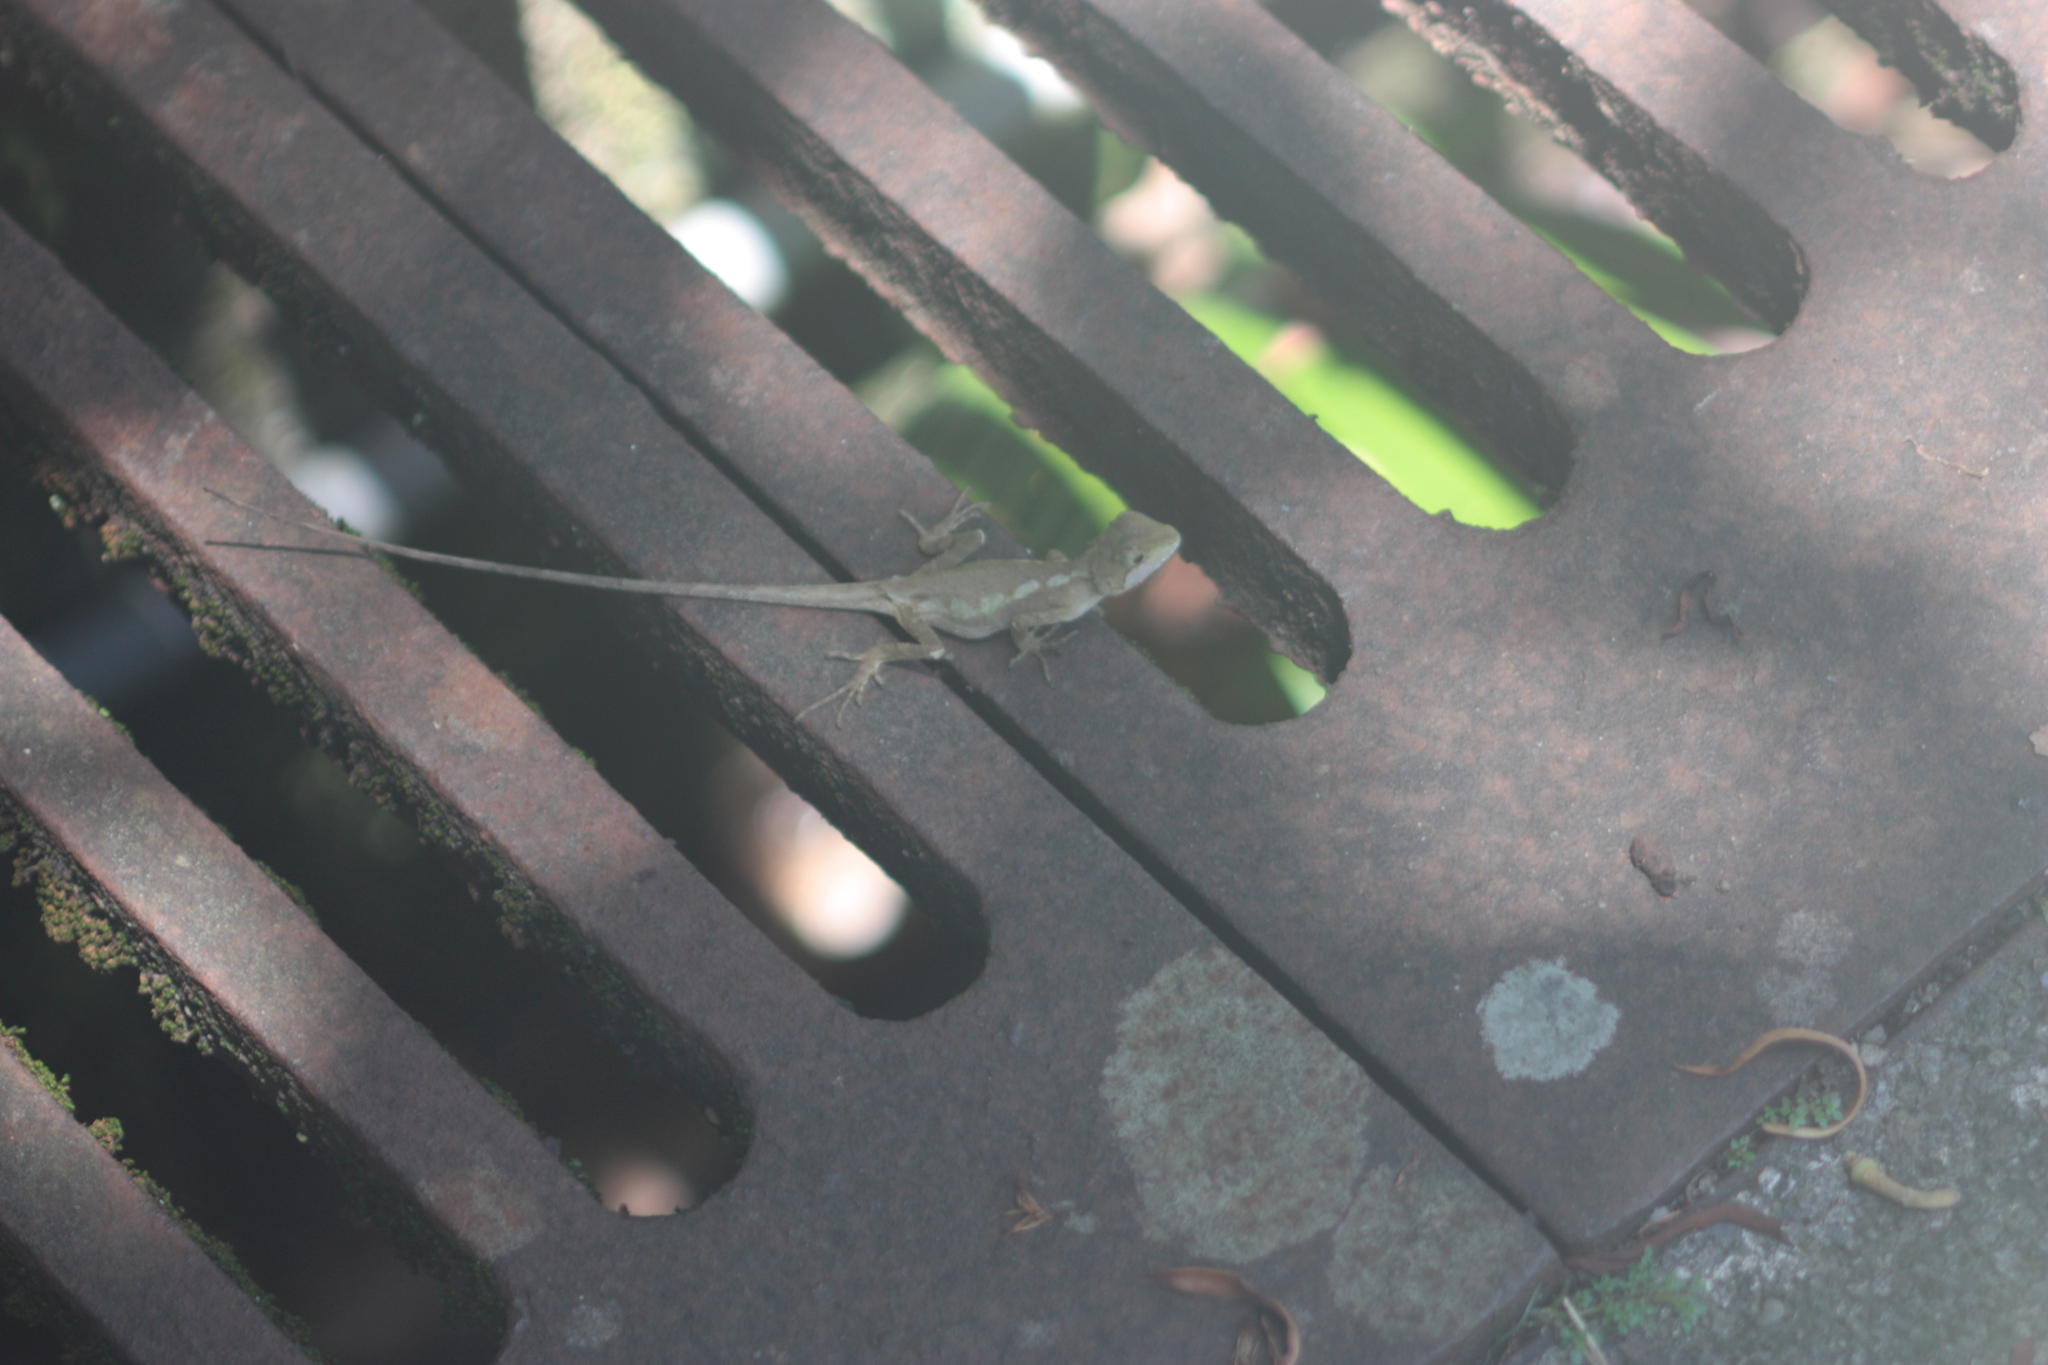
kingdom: Animalia
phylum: Chordata
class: Squamata
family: Agamidae
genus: Diploderma
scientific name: Diploderma swinhonis
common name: Taiwan japalure
